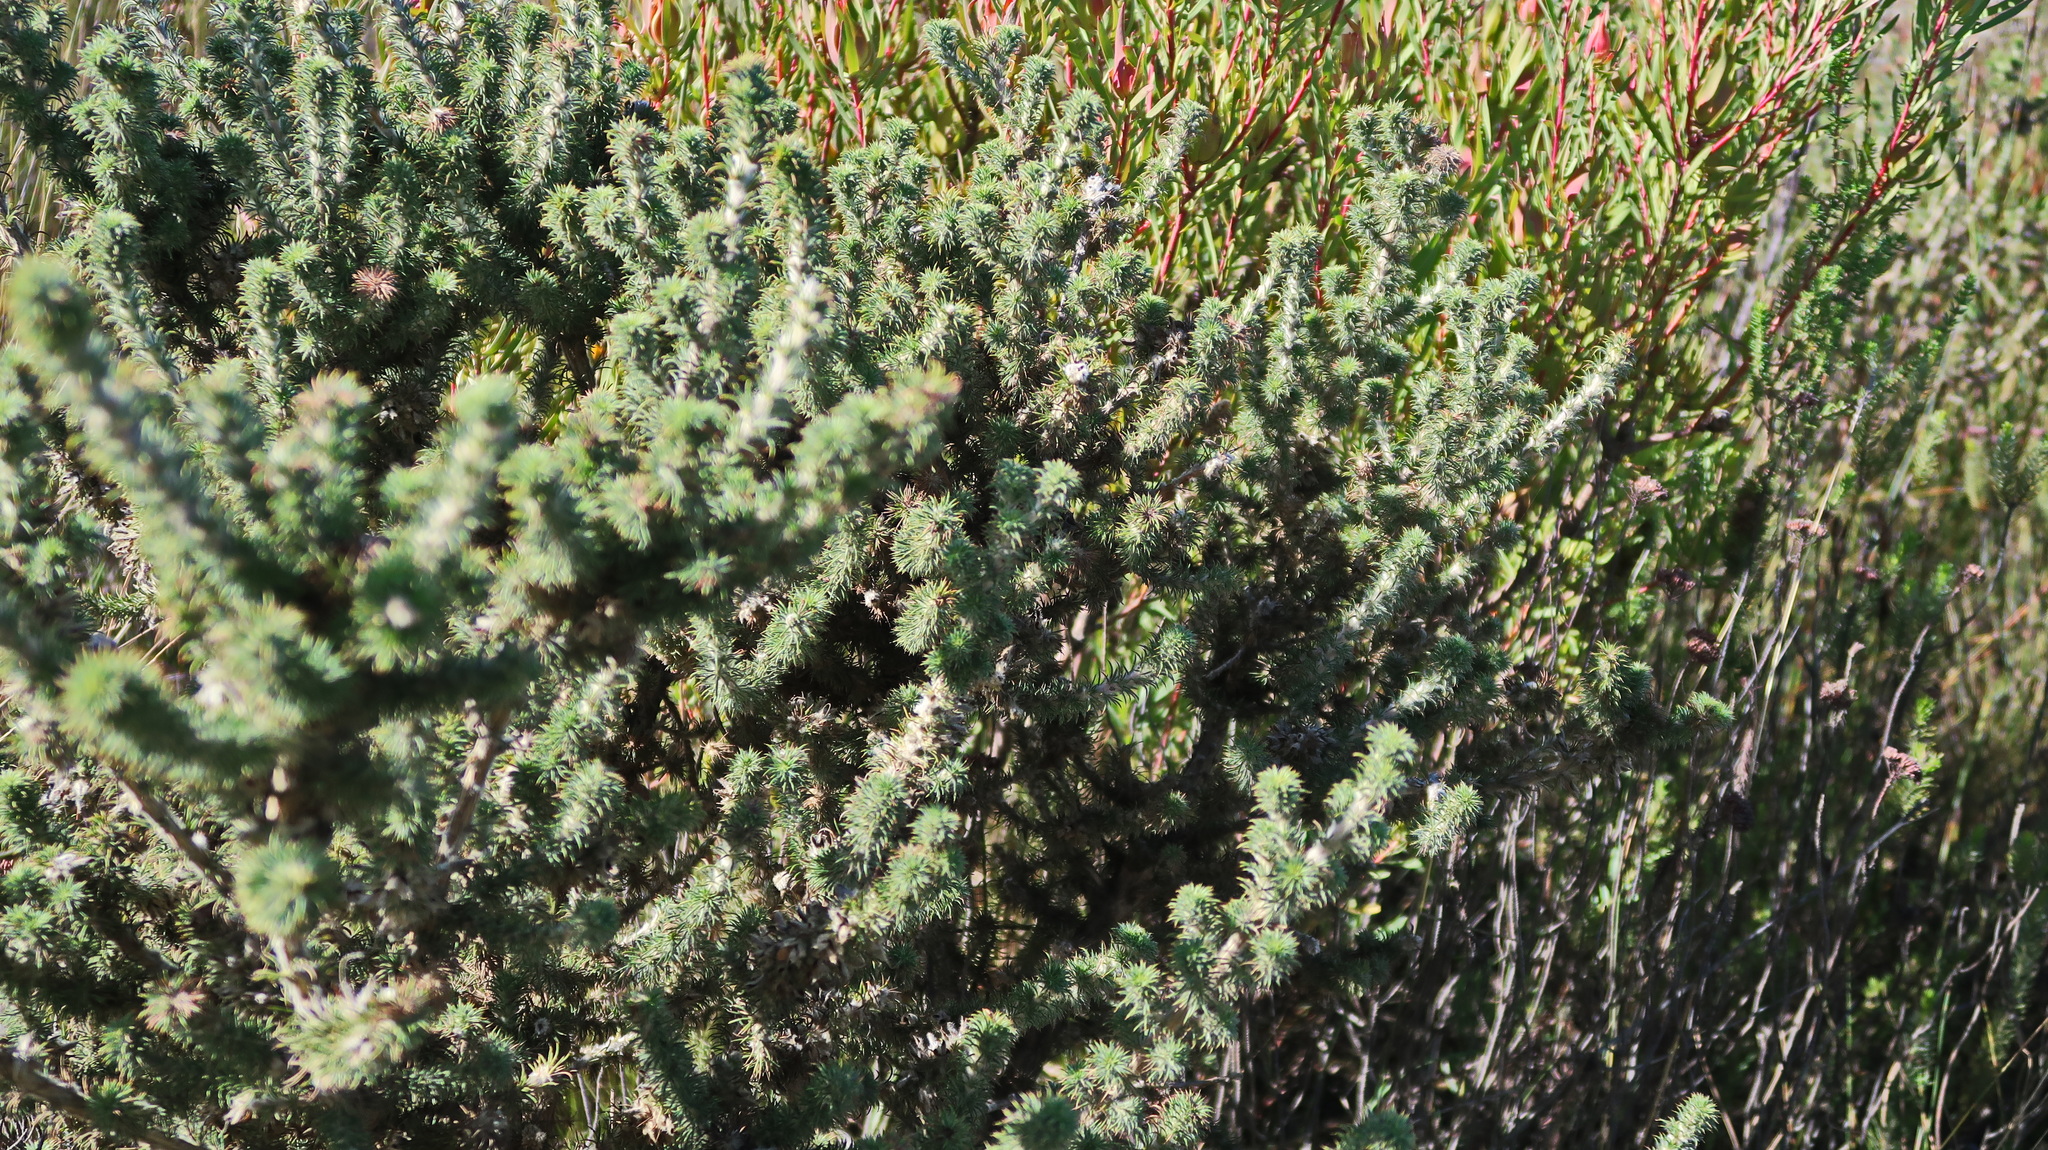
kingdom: Plantae
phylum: Tracheophyta
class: Magnoliopsida
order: Fabales
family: Fabaceae
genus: Aspalathus
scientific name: Aspalathus shawii
